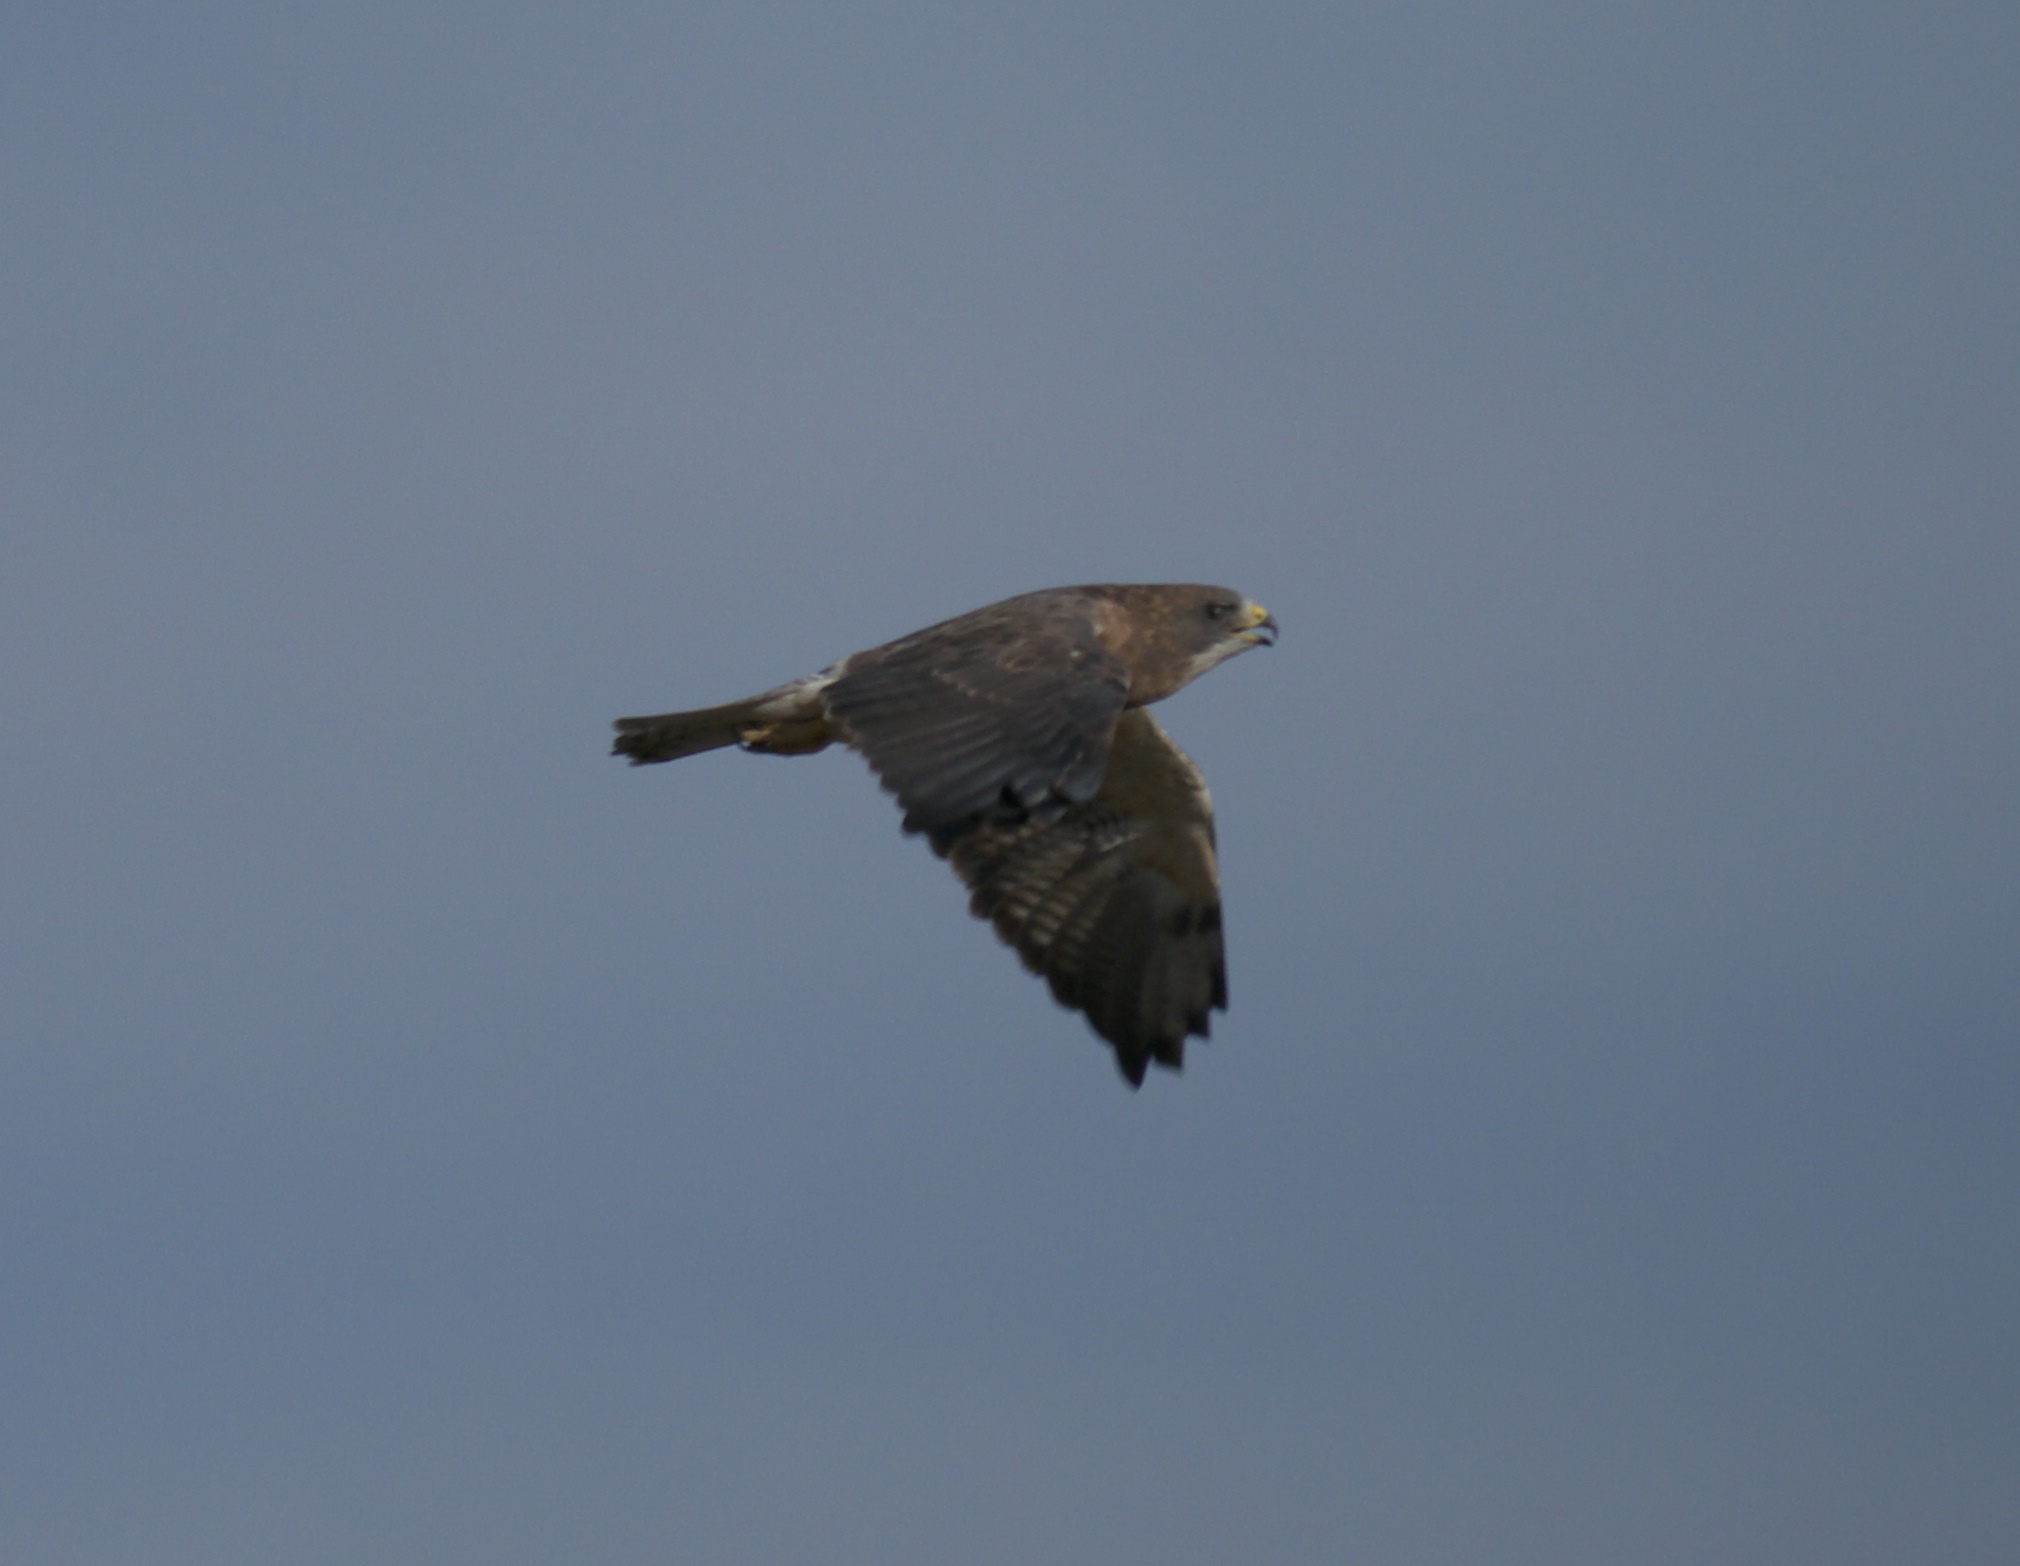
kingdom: Animalia
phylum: Chordata
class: Aves
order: Accipitriformes
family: Accipitridae
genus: Buteo
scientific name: Buteo swainsoni
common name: Swainson's hawk
